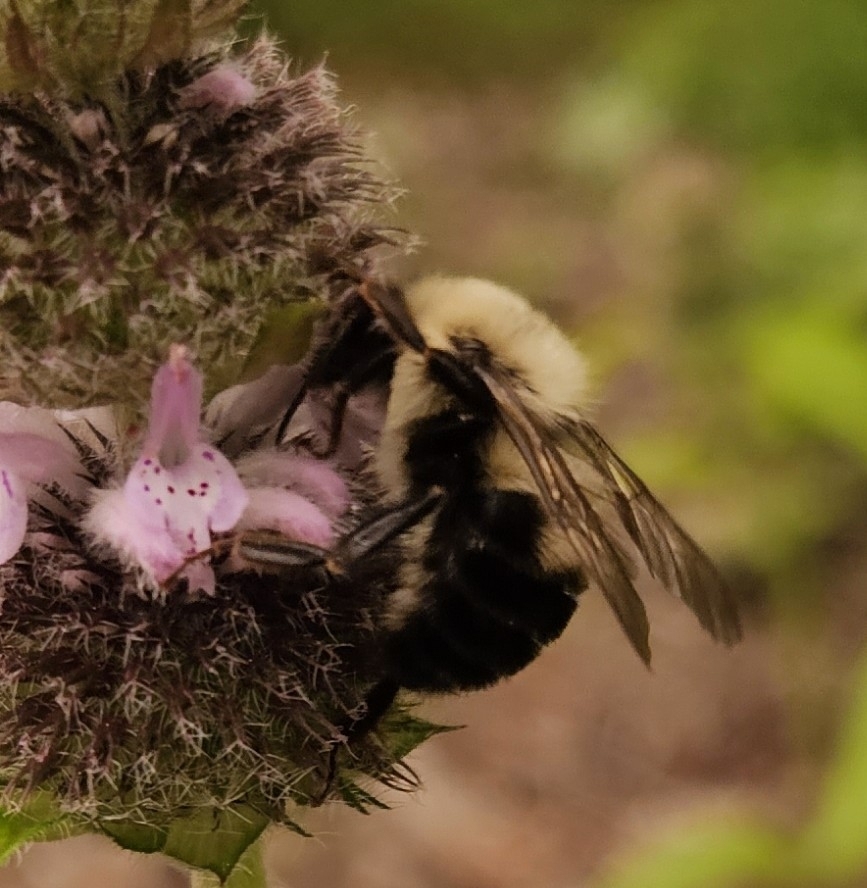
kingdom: Animalia
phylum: Arthropoda
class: Insecta
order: Hymenoptera
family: Apidae
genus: Bombus
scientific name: Bombus bimaculatus
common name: Two-spotted bumble bee
